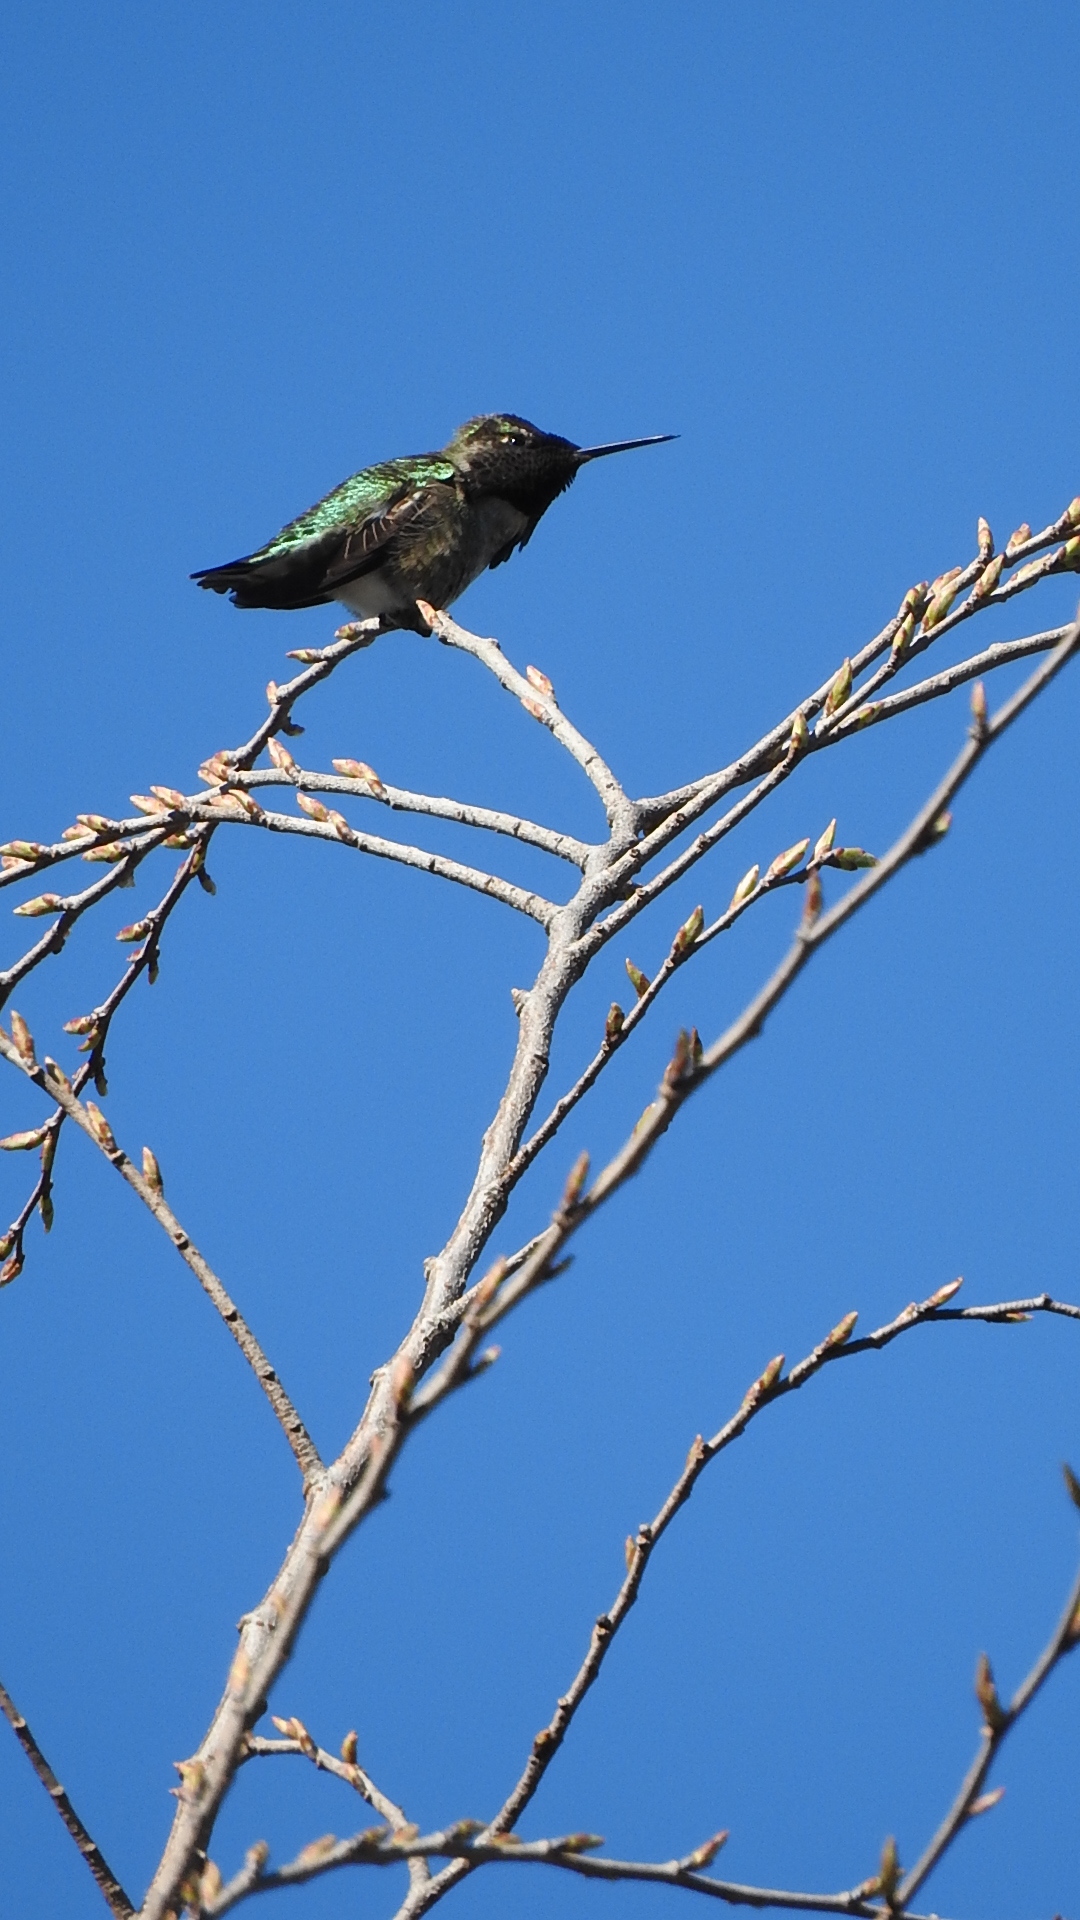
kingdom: Animalia
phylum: Chordata
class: Aves
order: Apodiformes
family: Trochilidae
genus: Calypte
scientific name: Calypte anna
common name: Anna's hummingbird
